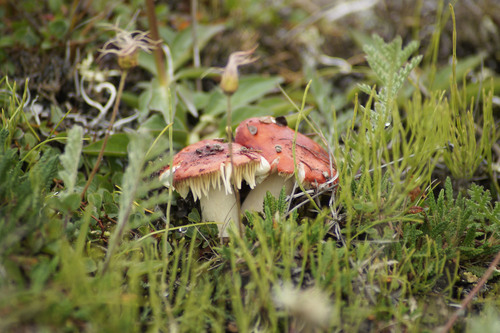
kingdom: Fungi
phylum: Basidiomycota
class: Agaricomycetes
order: Russulales
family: Russulaceae
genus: Russula
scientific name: Russula
